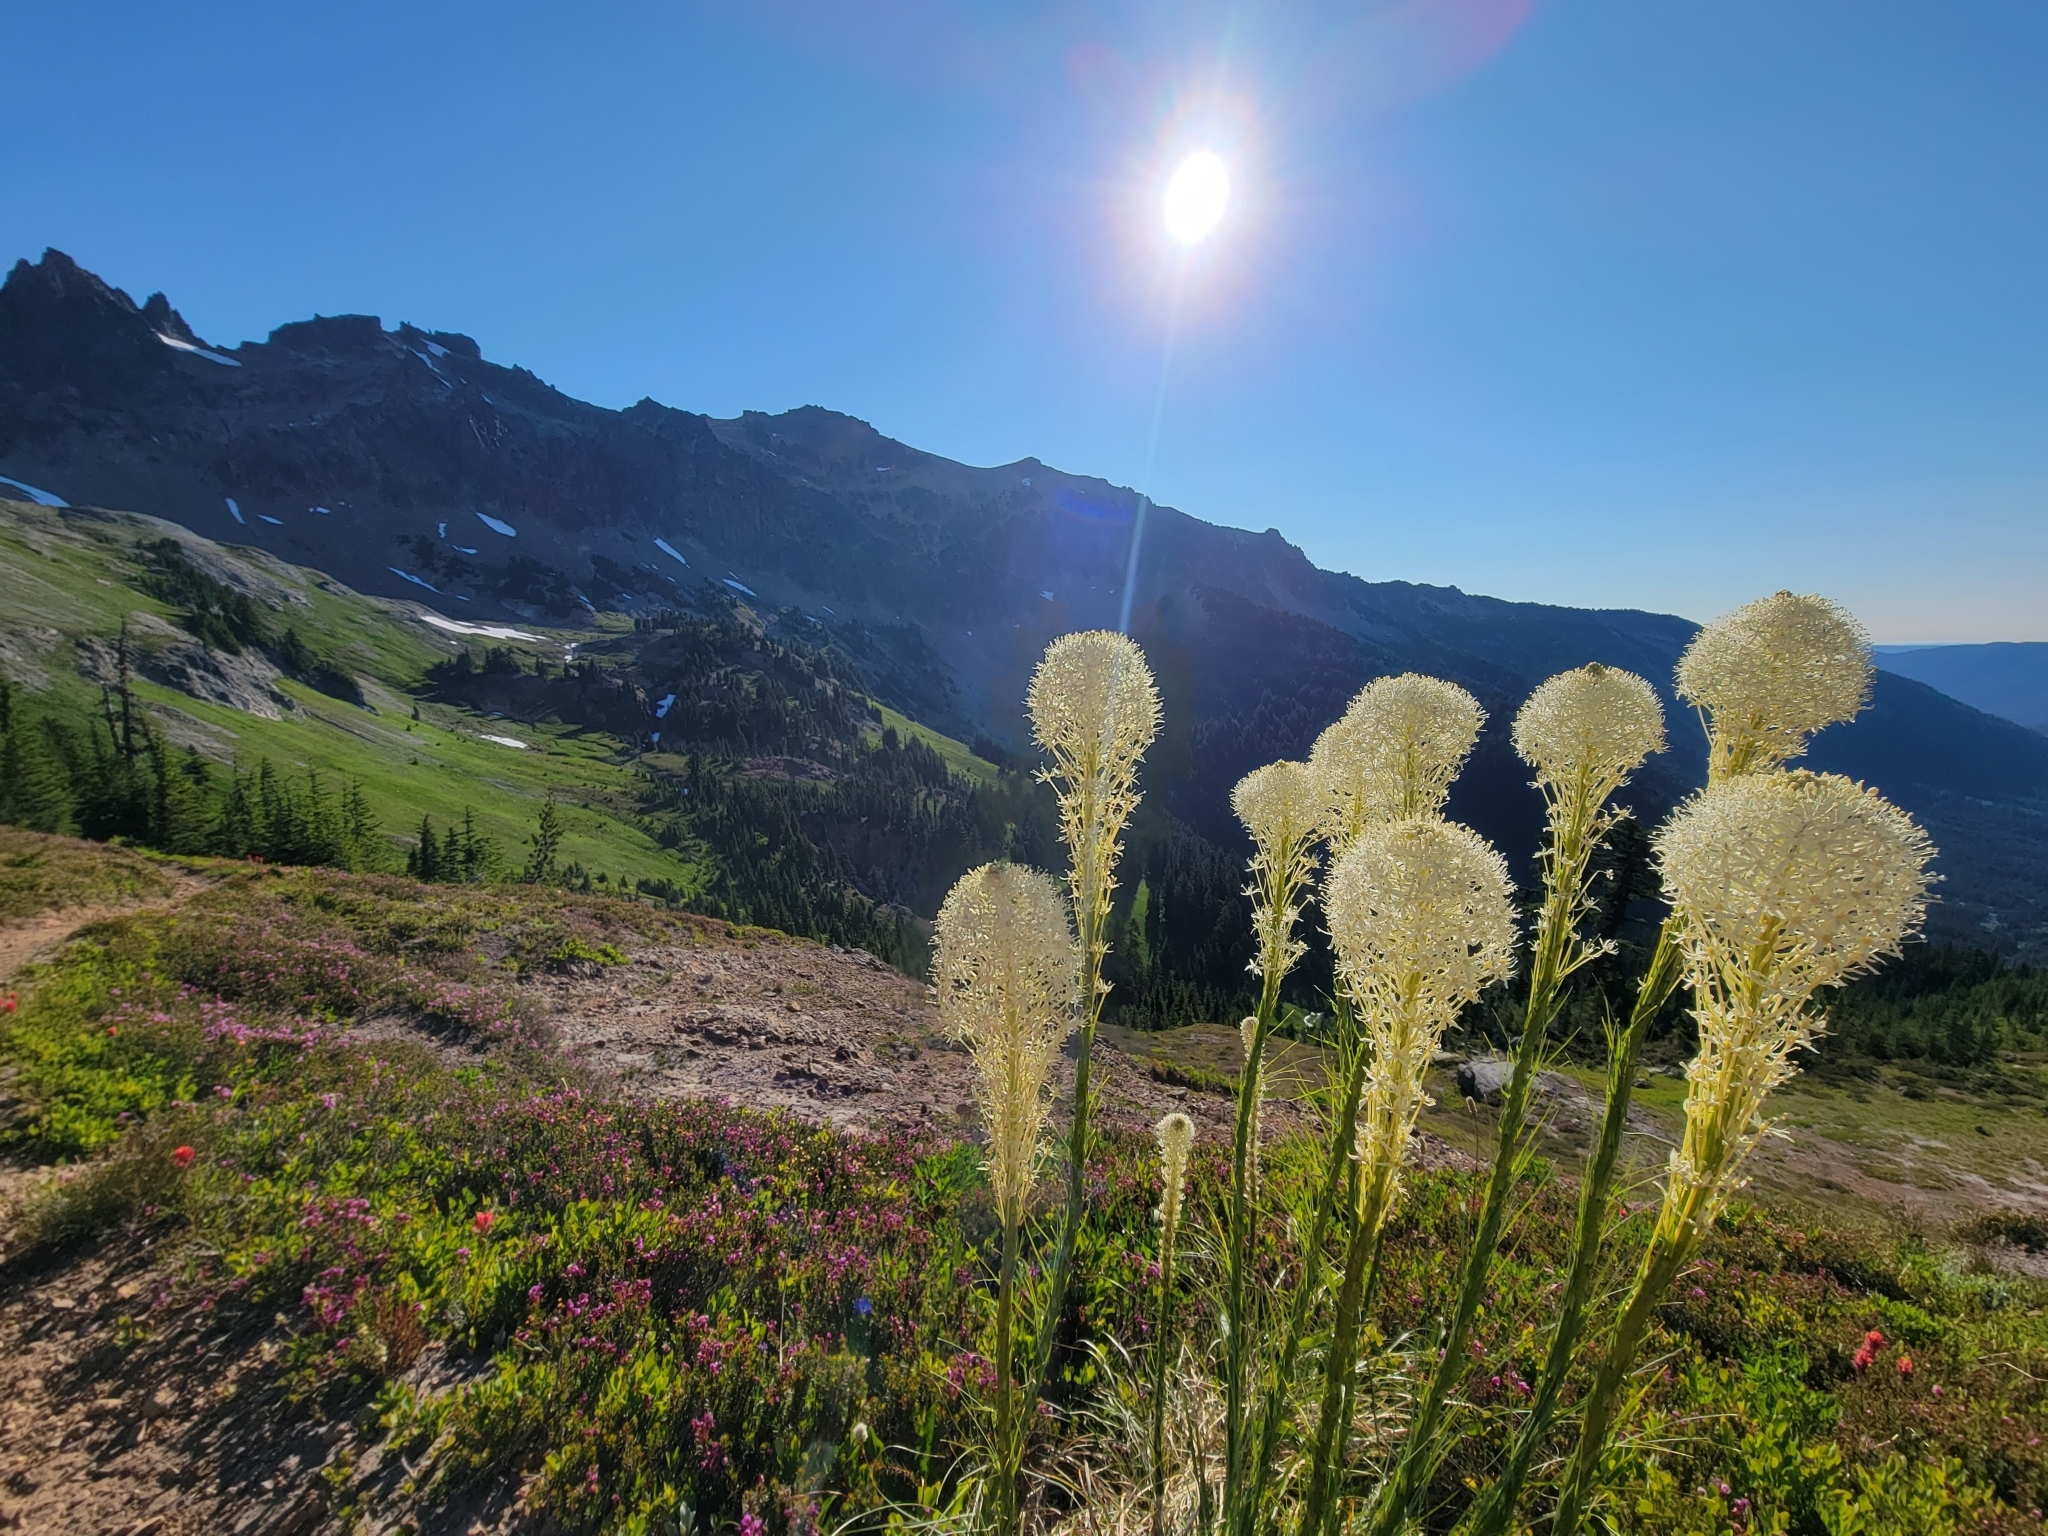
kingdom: Plantae
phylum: Tracheophyta
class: Liliopsida
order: Liliales
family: Melanthiaceae
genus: Xerophyllum
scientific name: Xerophyllum tenax
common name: Bear-grass
